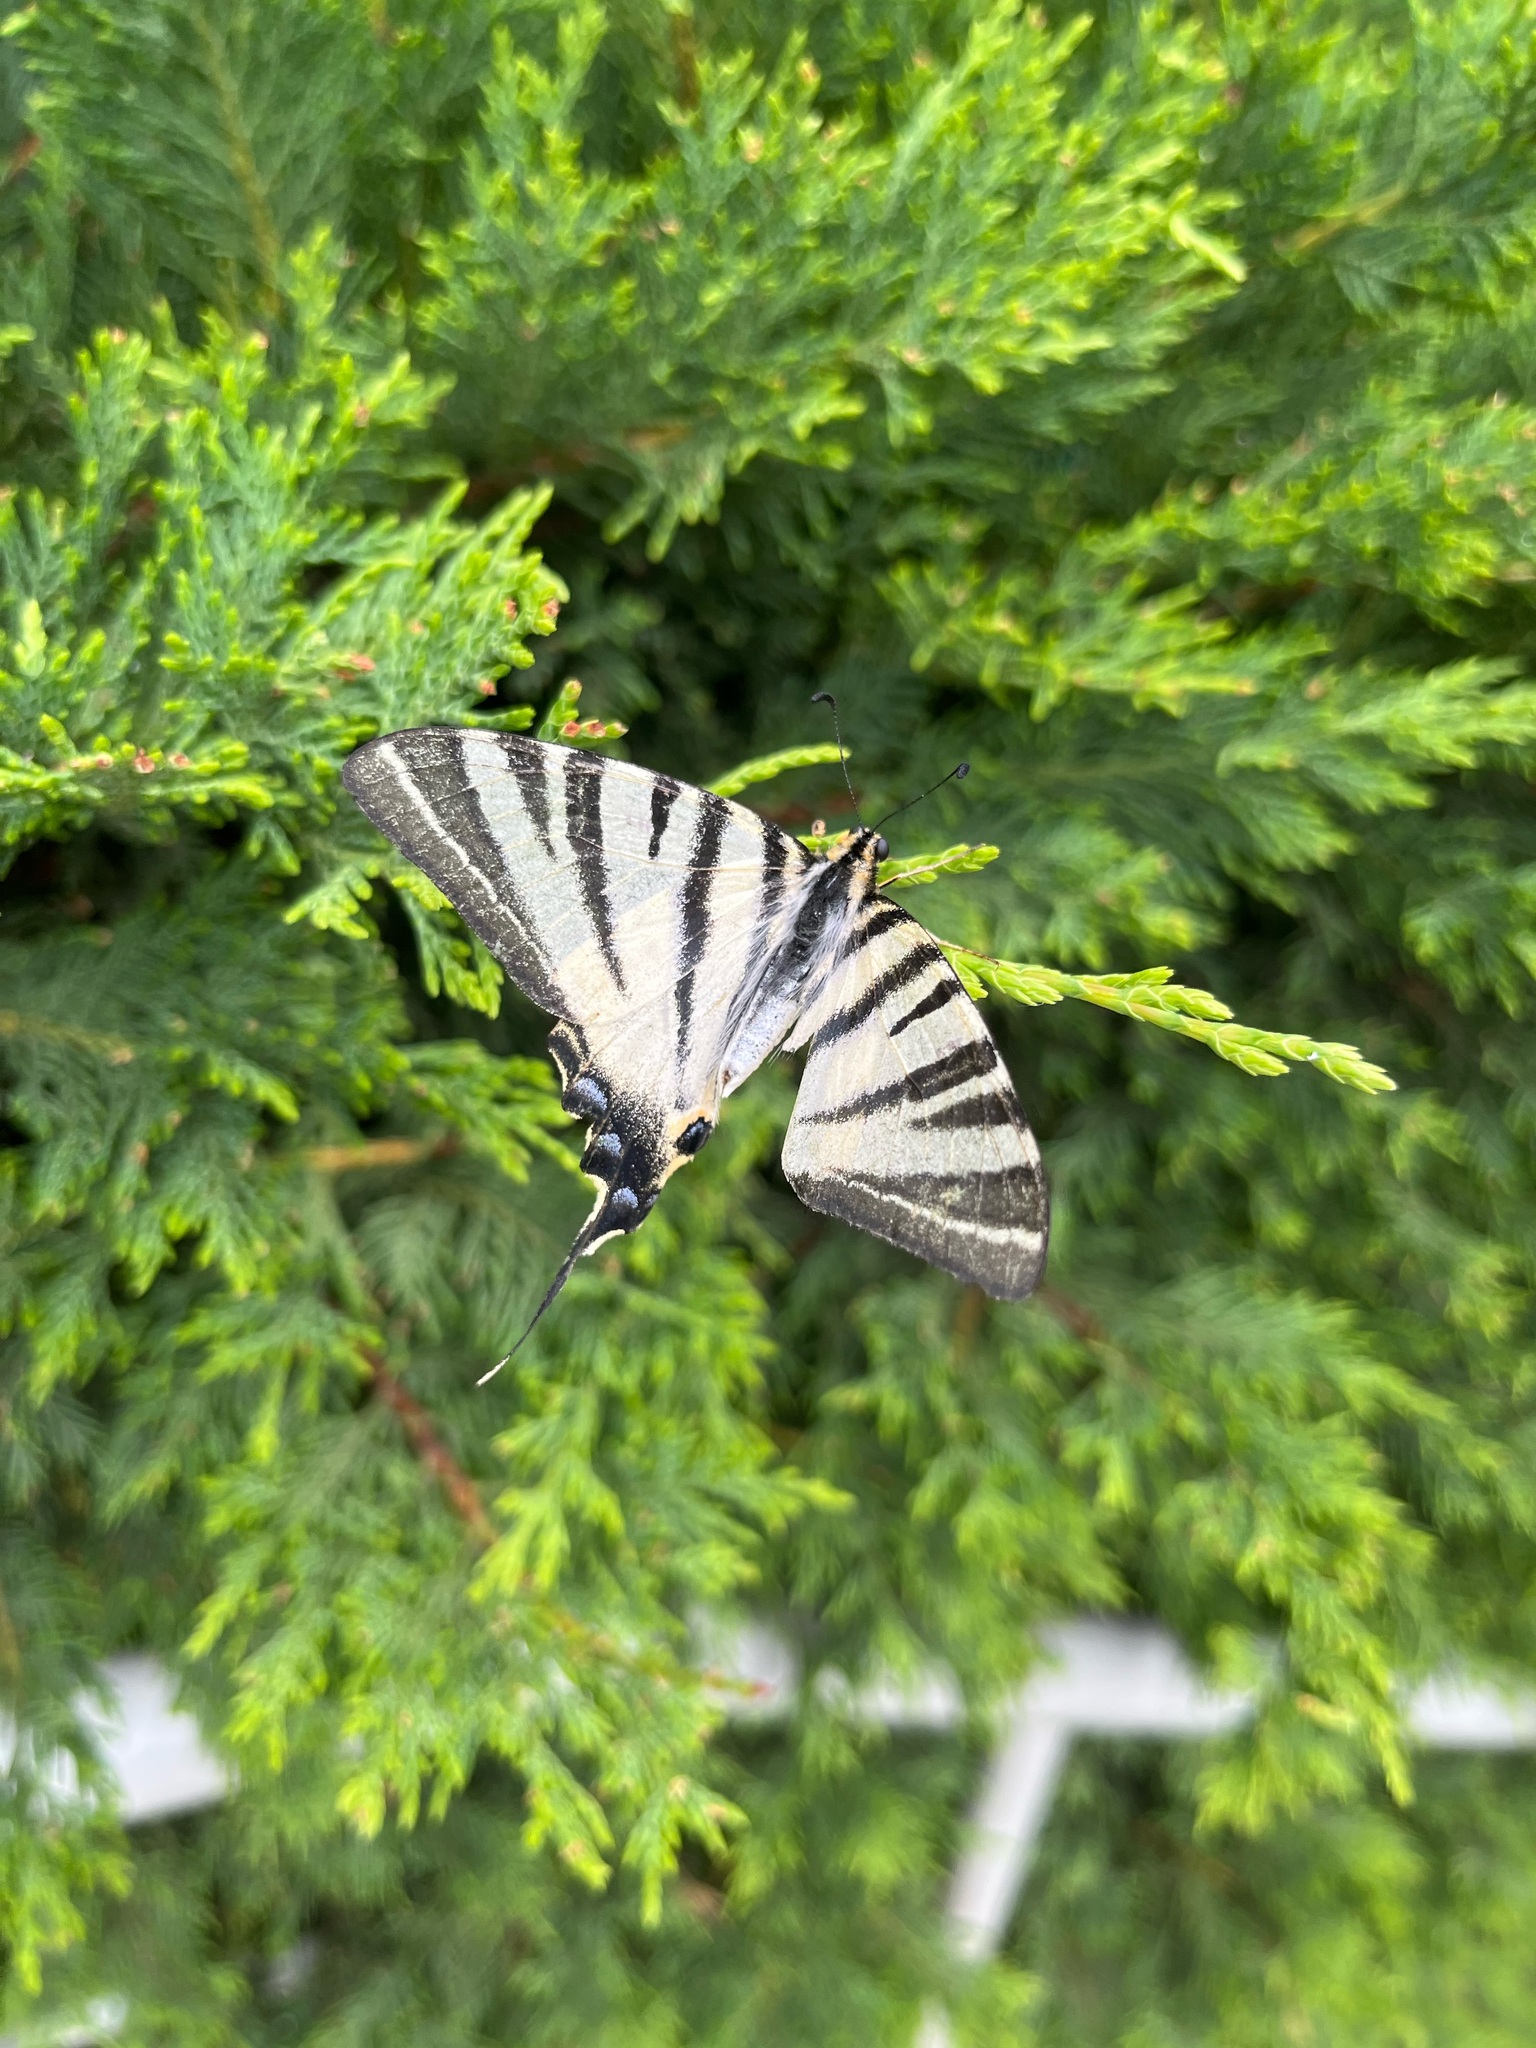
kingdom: Animalia
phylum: Arthropoda
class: Insecta
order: Lepidoptera
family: Papilionidae
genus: Iphiclides
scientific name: Iphiclides podalirius
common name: Scarce swallowtail
